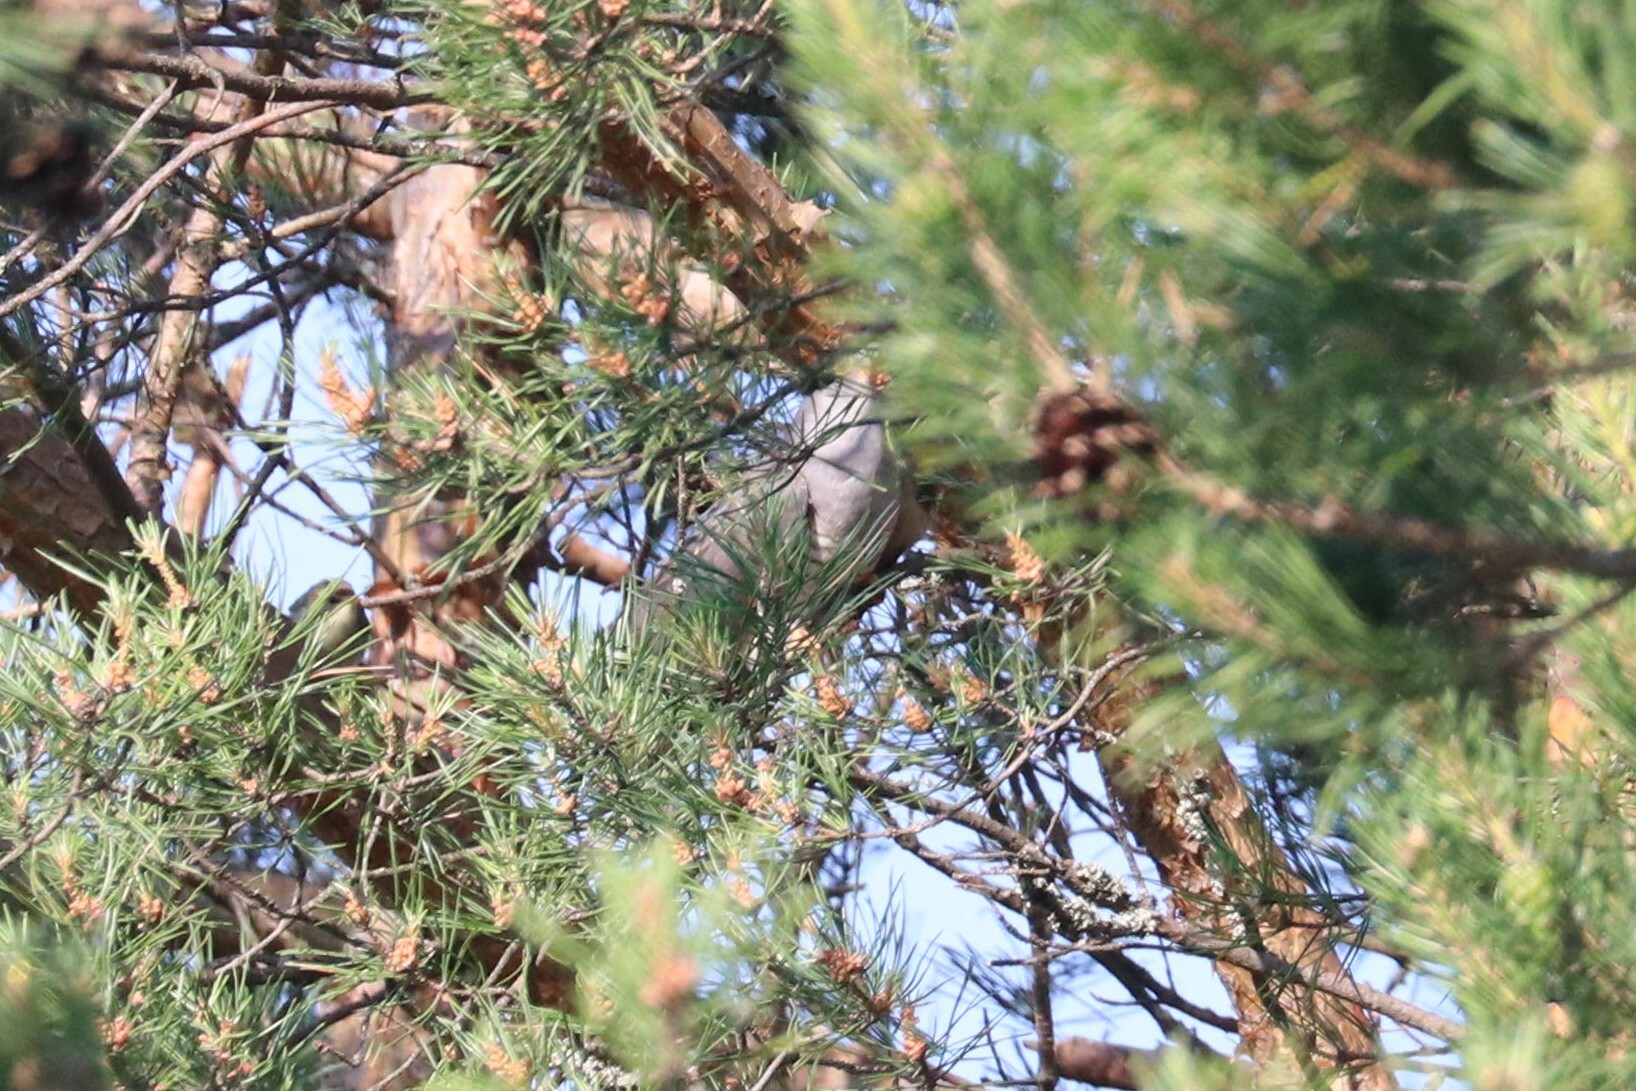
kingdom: Animalia
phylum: Chordata
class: Aves
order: Cuculiformes
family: Cuculidae
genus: Cuculus
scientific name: Cuculus optatus
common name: Oriental cuckoo
